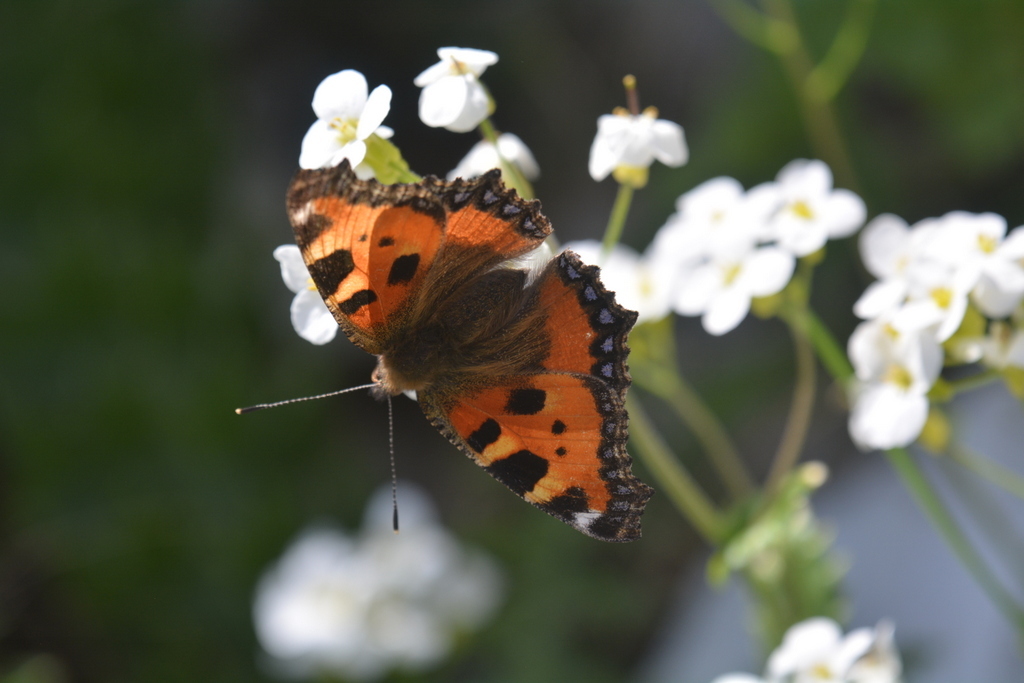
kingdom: Animalia
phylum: Arthropoda
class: Insecta
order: Lepidoptera
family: Nymphalidae
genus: Aglais
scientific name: Aglais urticae
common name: Small tortoiseshell
